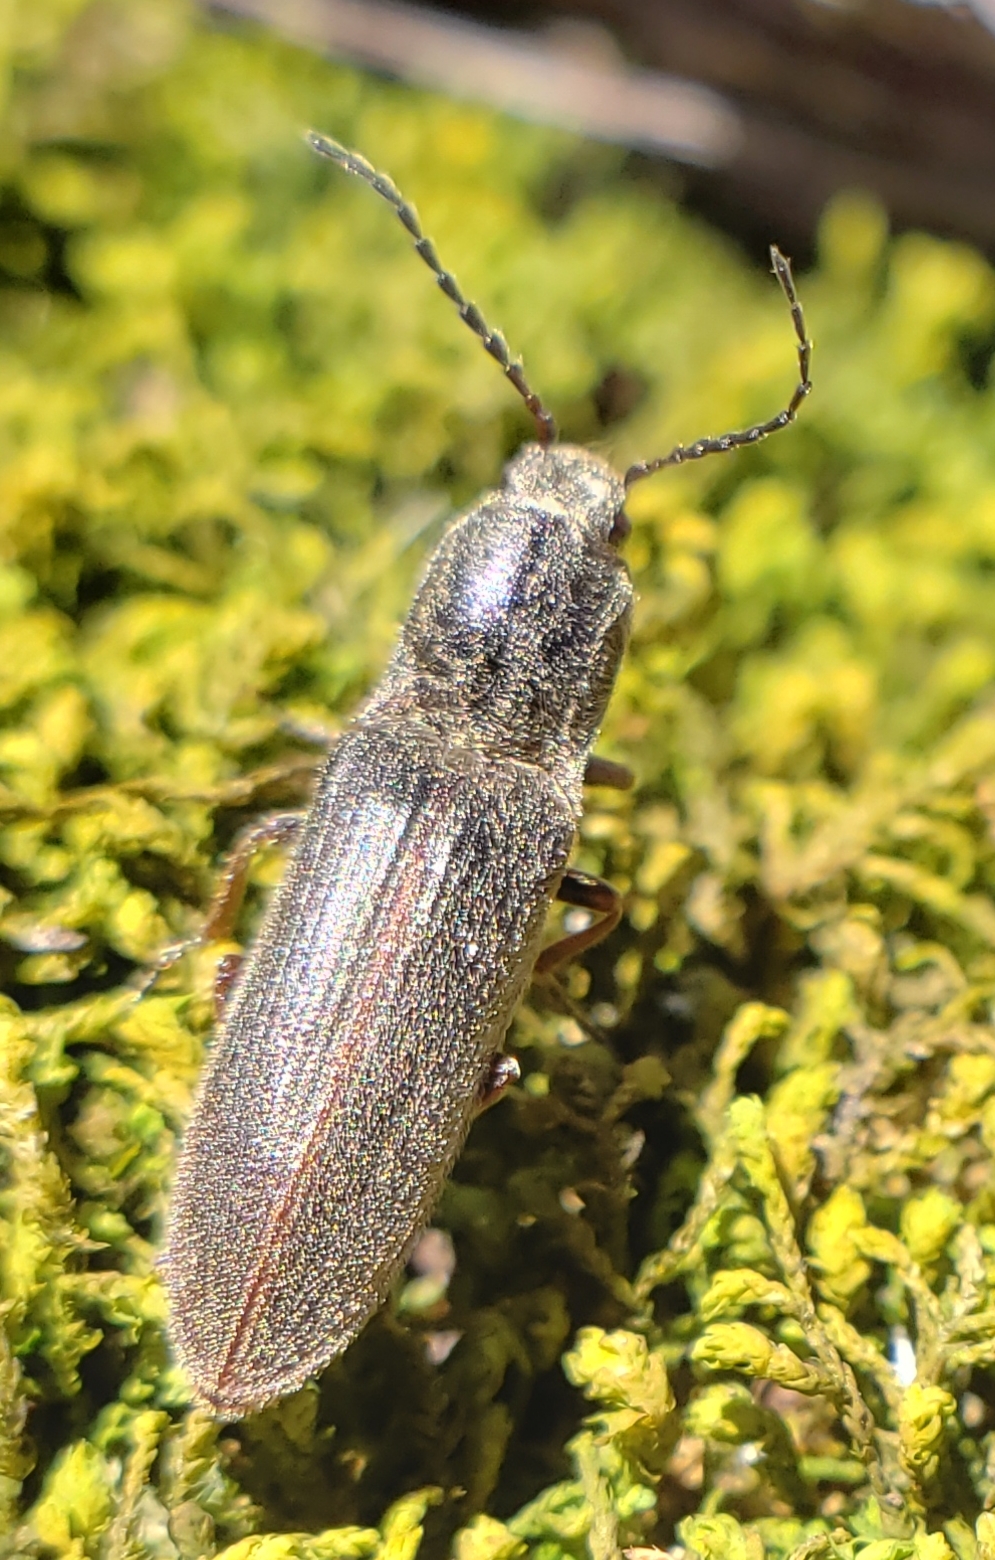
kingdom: Animalia
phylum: Arthropoda
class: Insecta
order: Coleoptera
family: Elateridae
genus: Sylvanelater
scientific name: Sylvanelater cylindriformis
